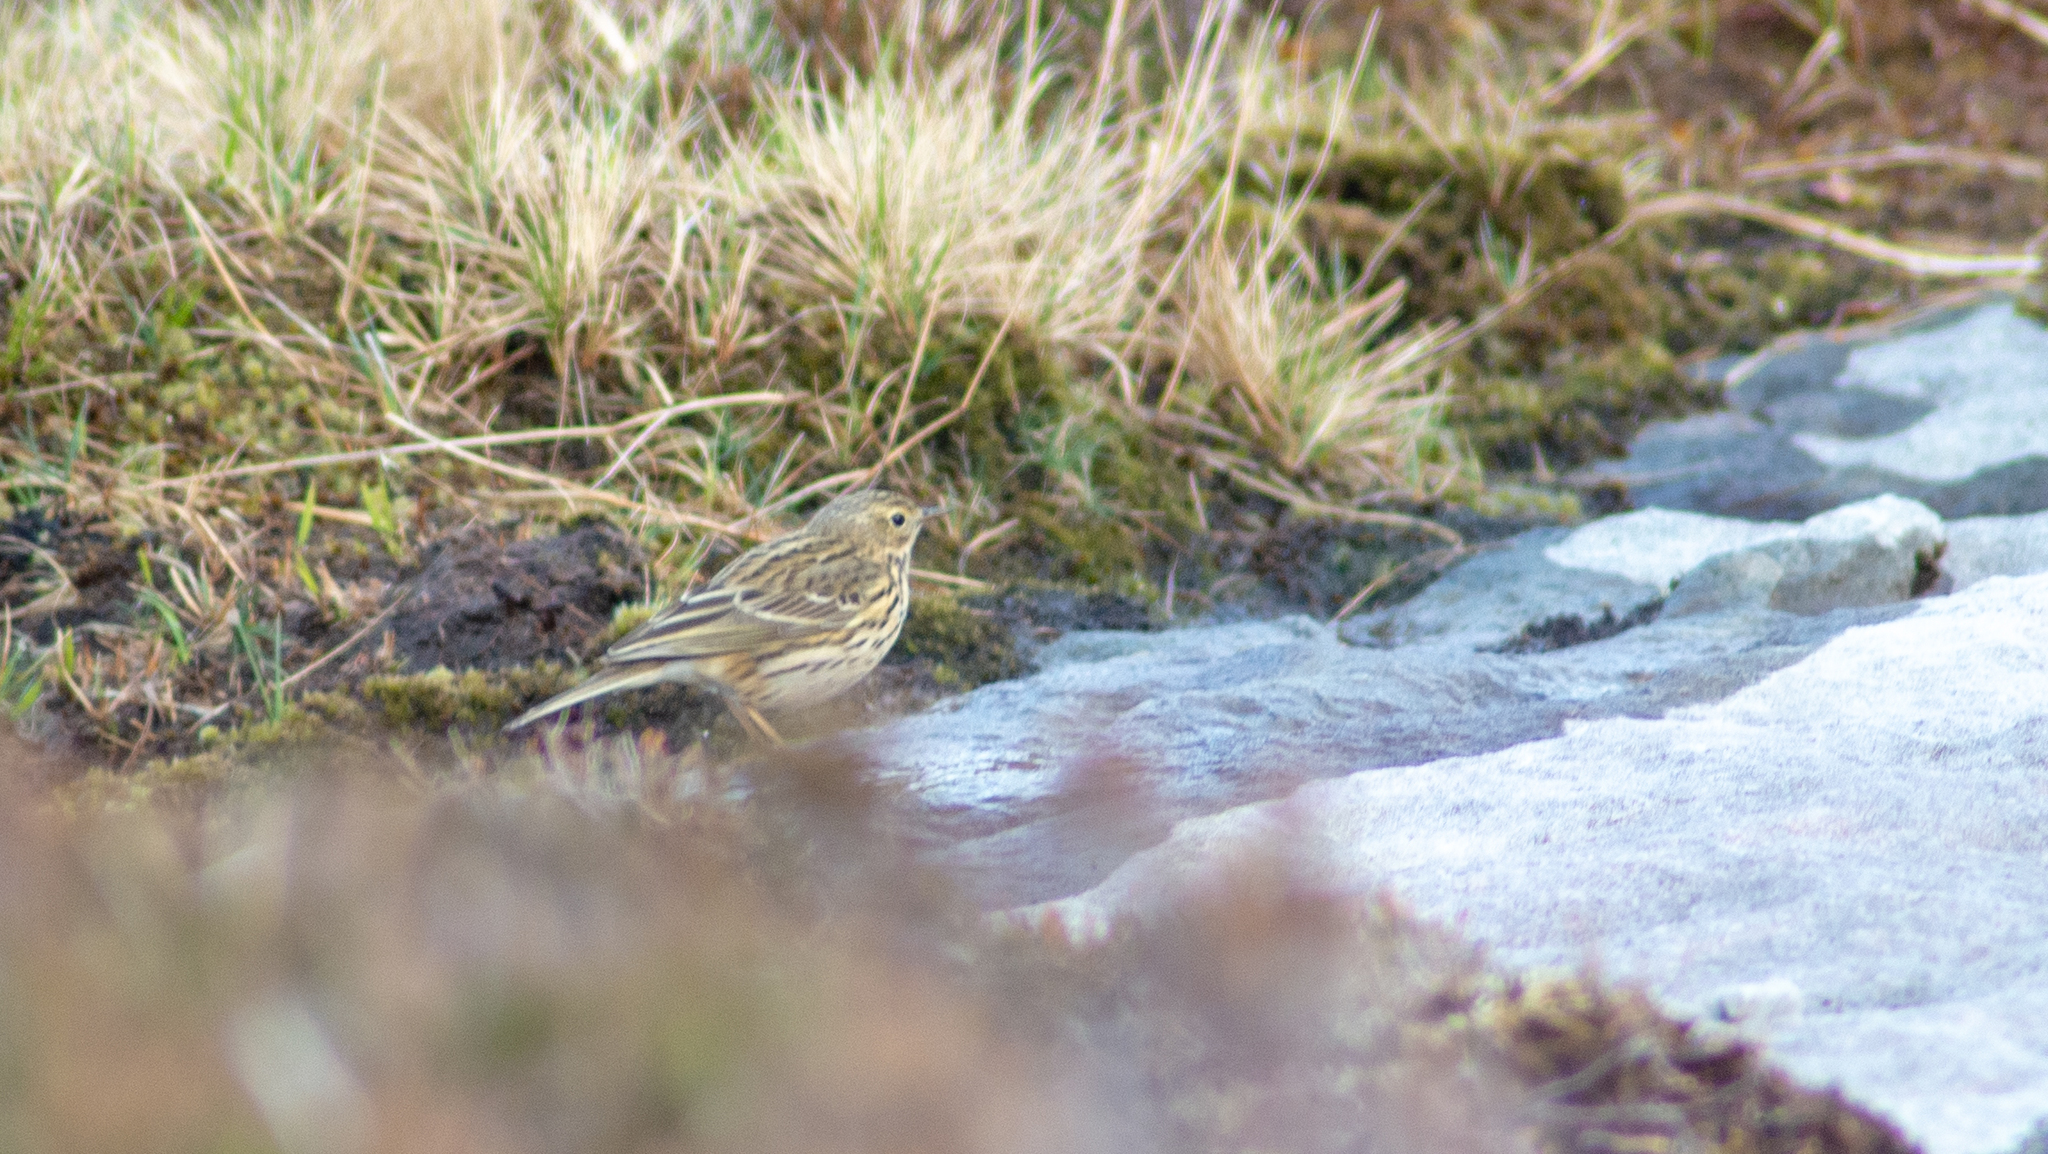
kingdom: Animalia
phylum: Chordata
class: Aves
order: Passeriformes
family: Motacillidae
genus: Anthus
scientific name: Anthus pratensis
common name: Meadow pipit
